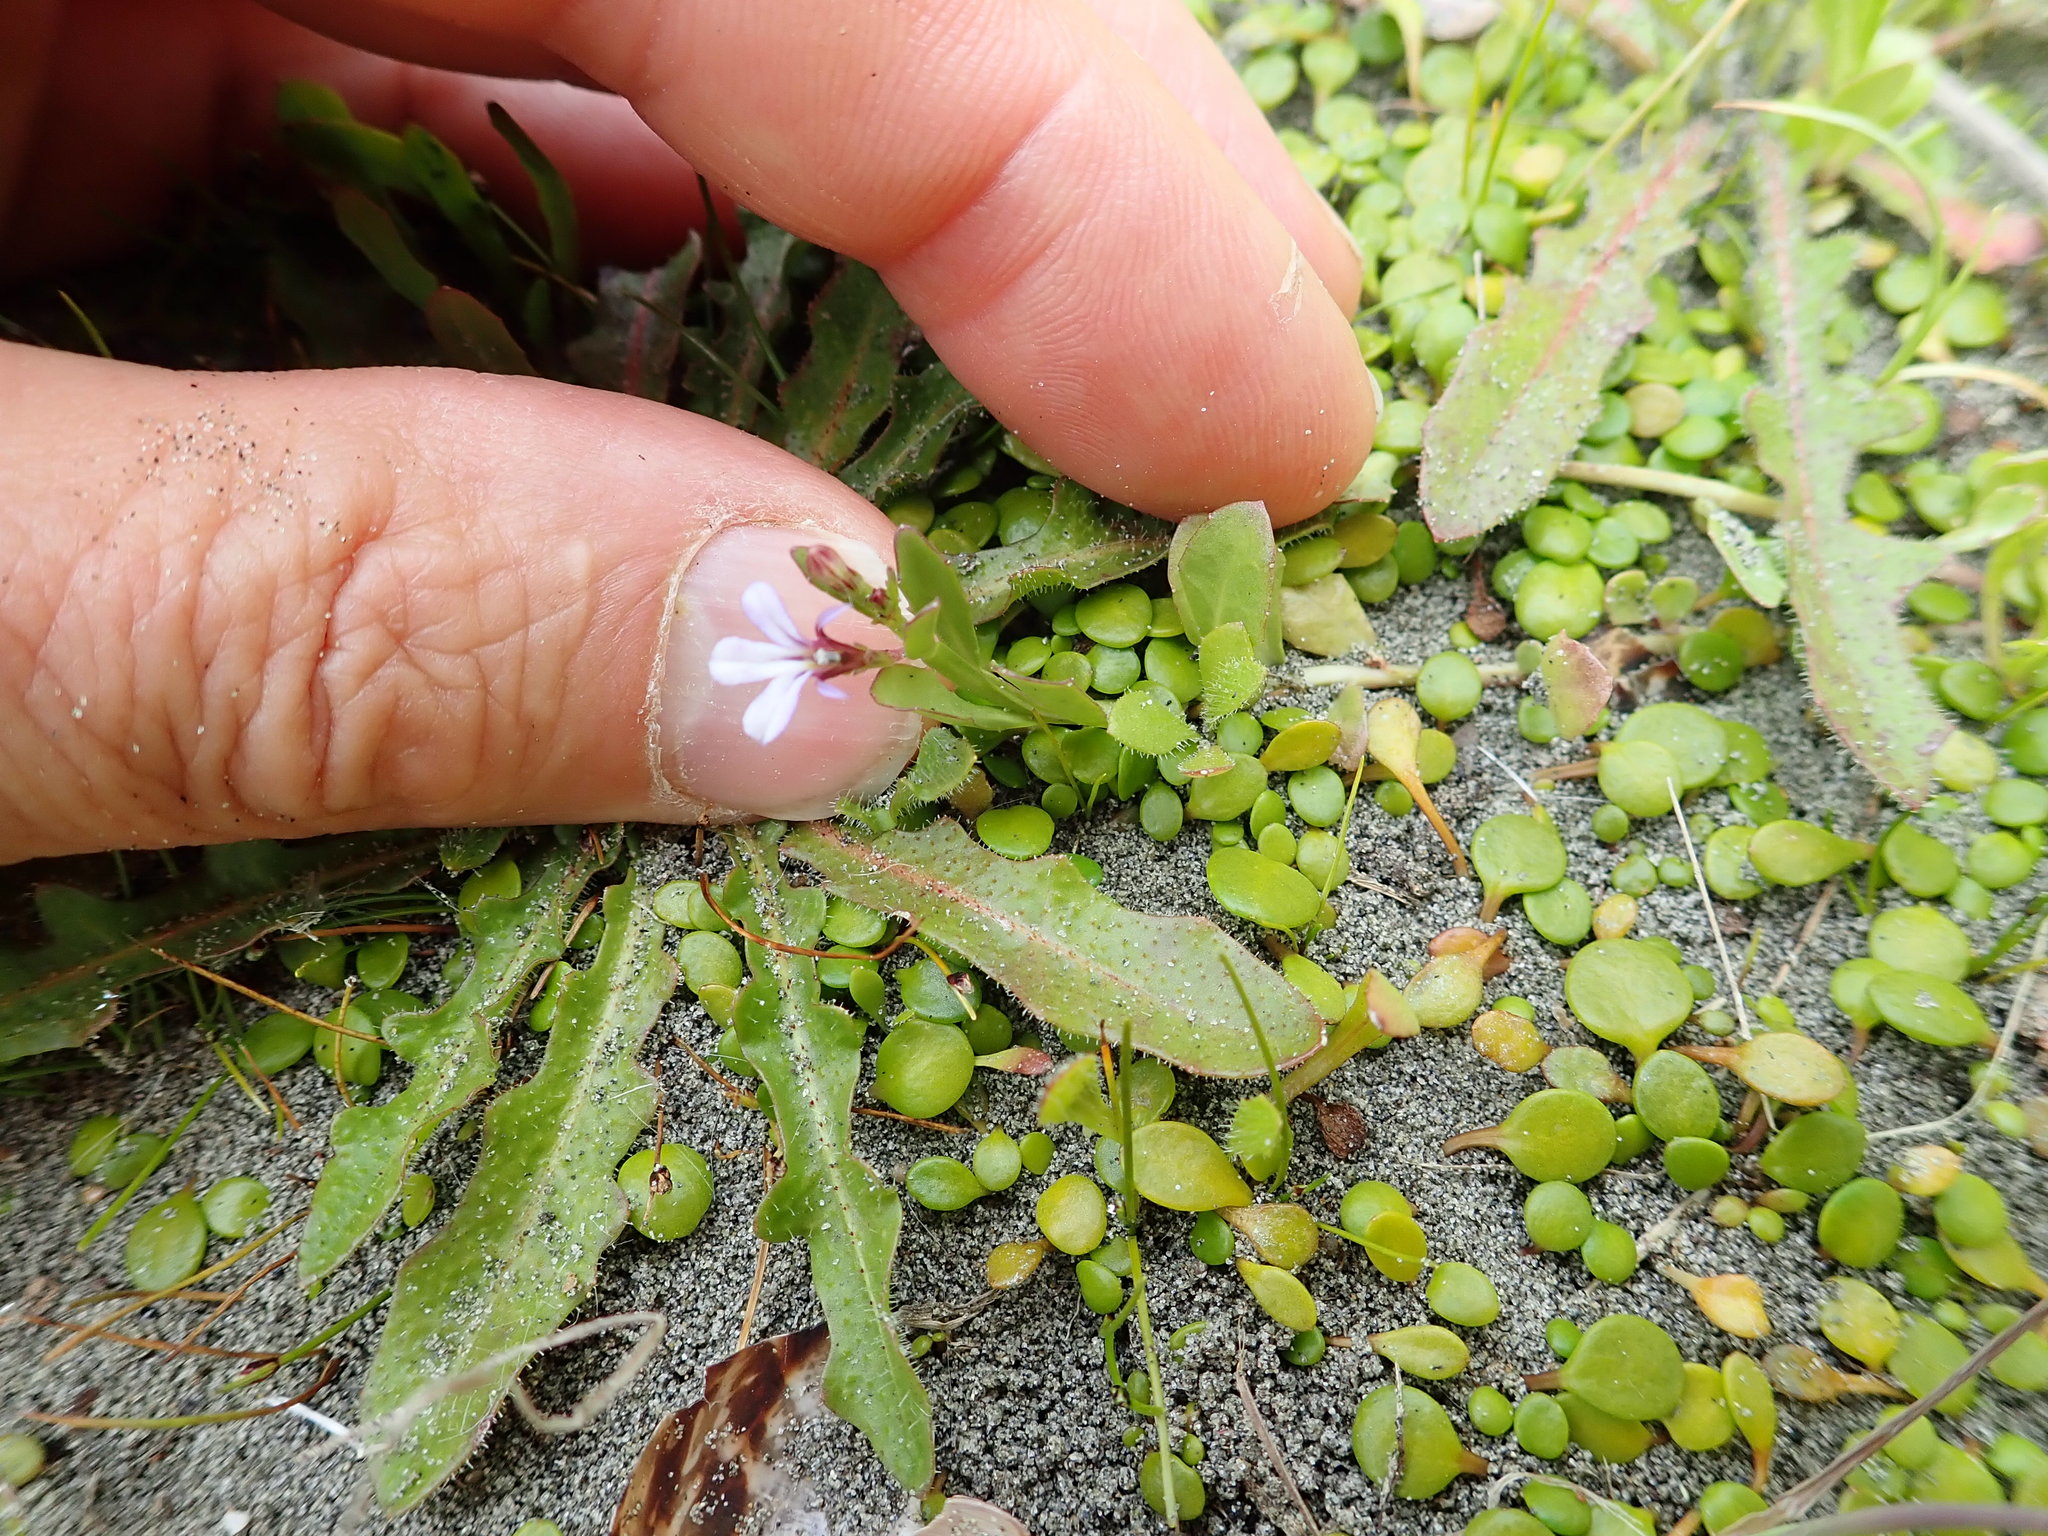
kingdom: Plantae
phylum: Tracheophyta
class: Magnoliopsida
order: Asterales
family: Campanulaceae
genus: Lobelia
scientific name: Lobelia anceps
